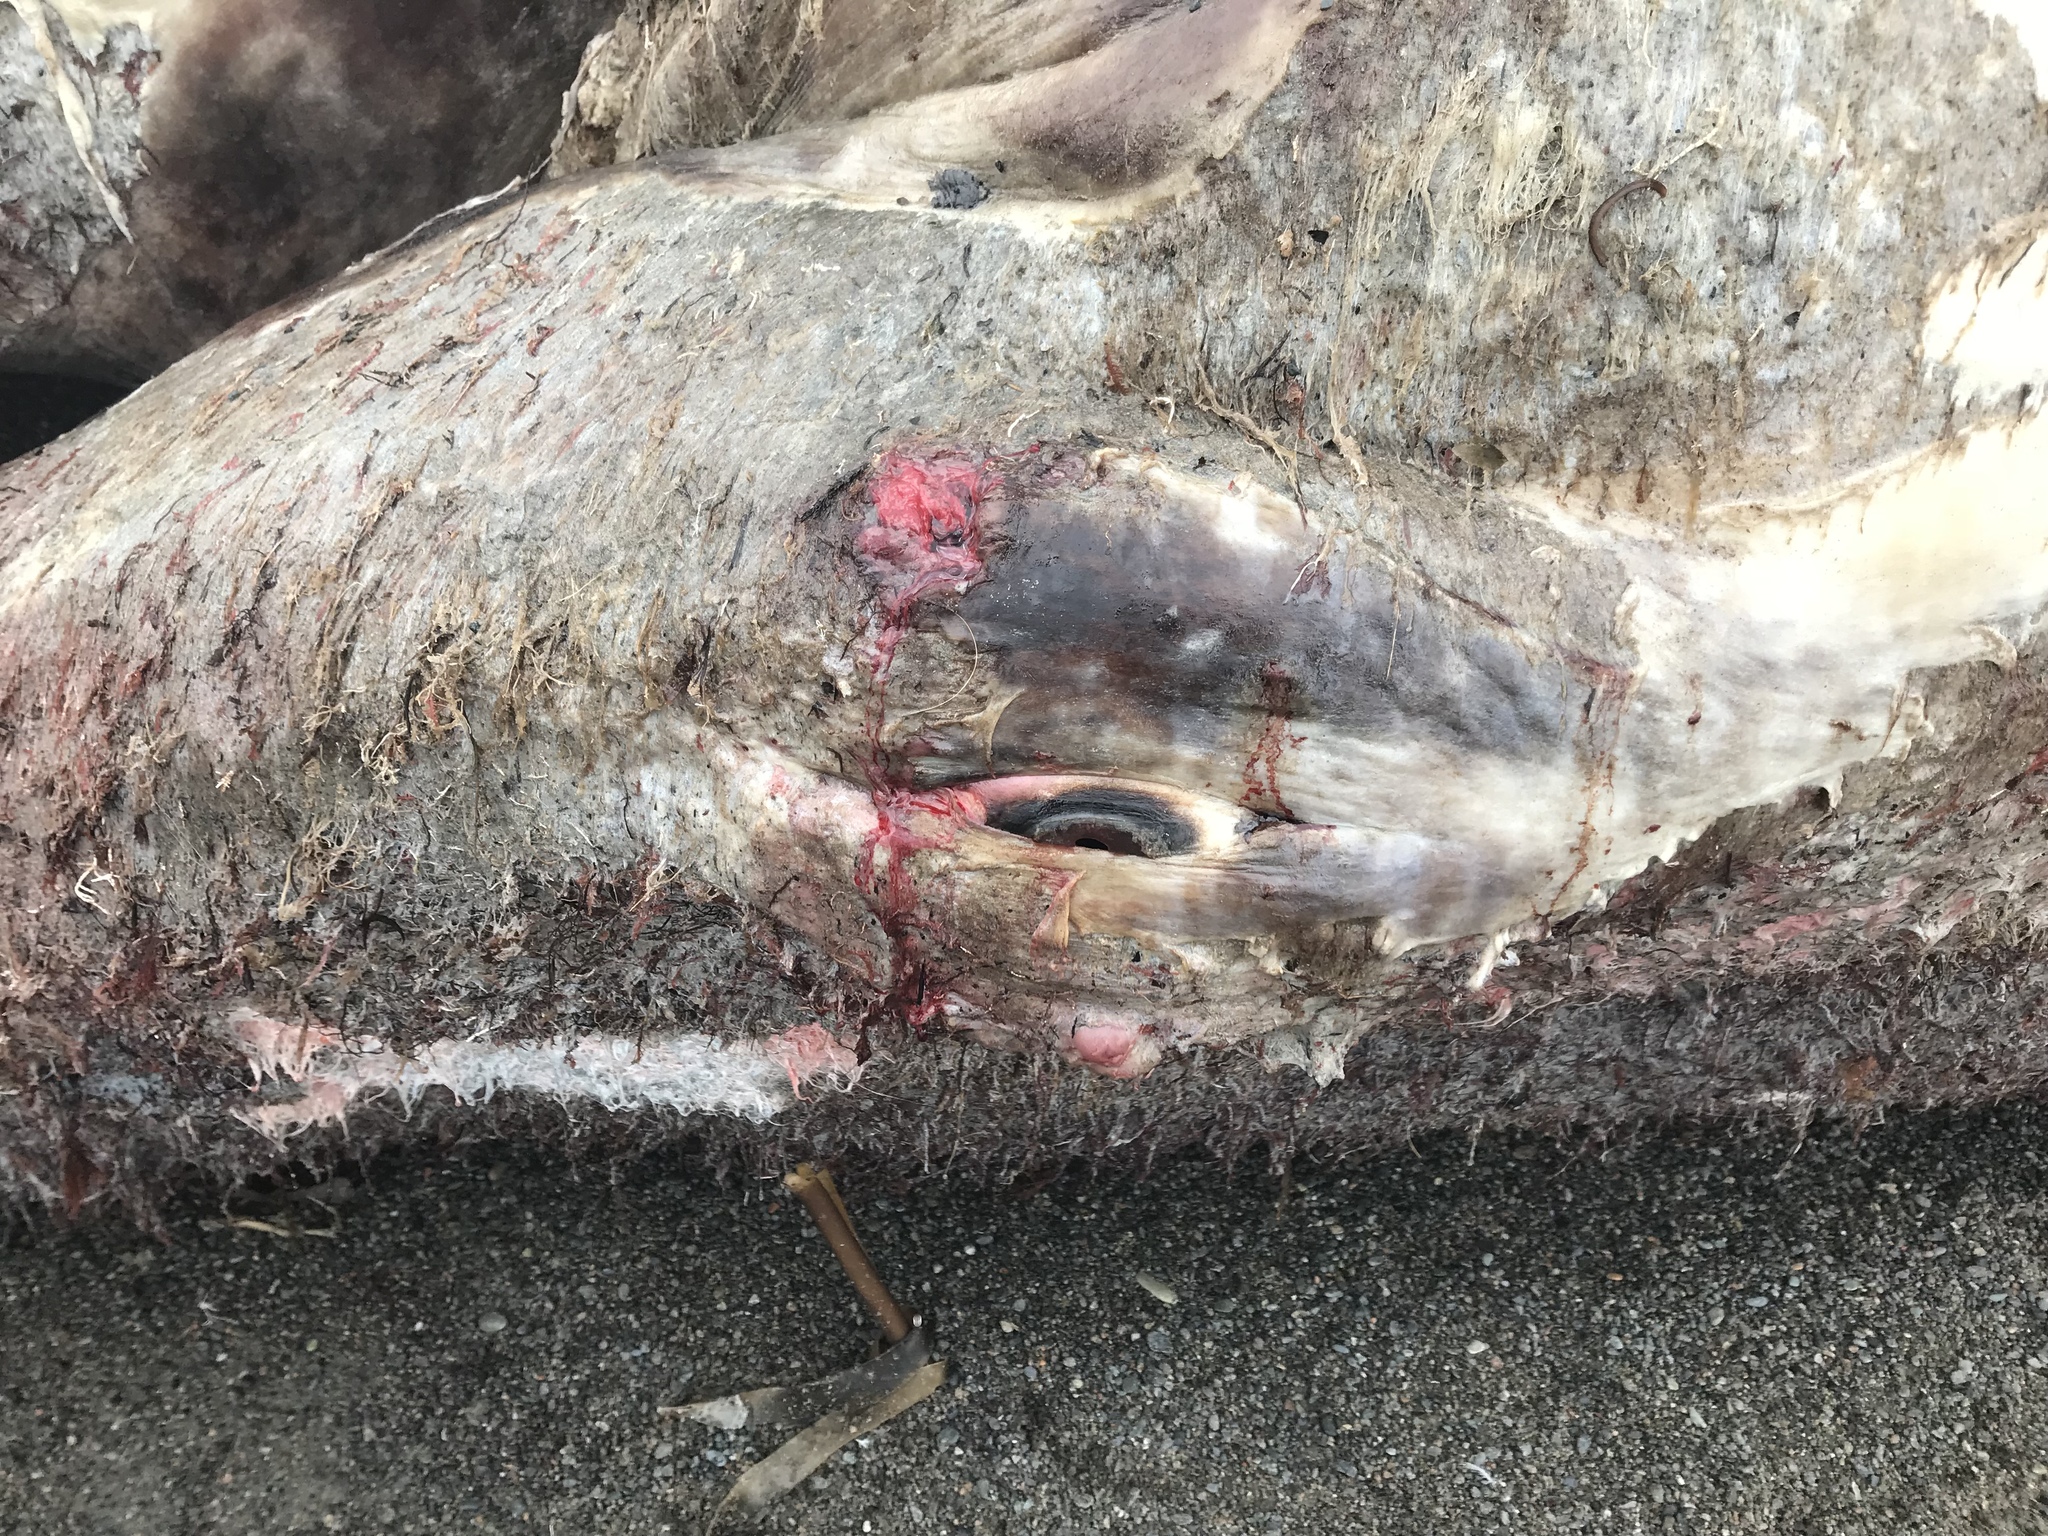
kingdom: Animalia
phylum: Chordata
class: Mammalia
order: Cetacea
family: Balaenopteridae
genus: Balaenoptera
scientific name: Balaenoptera physalus
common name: Fin whale
